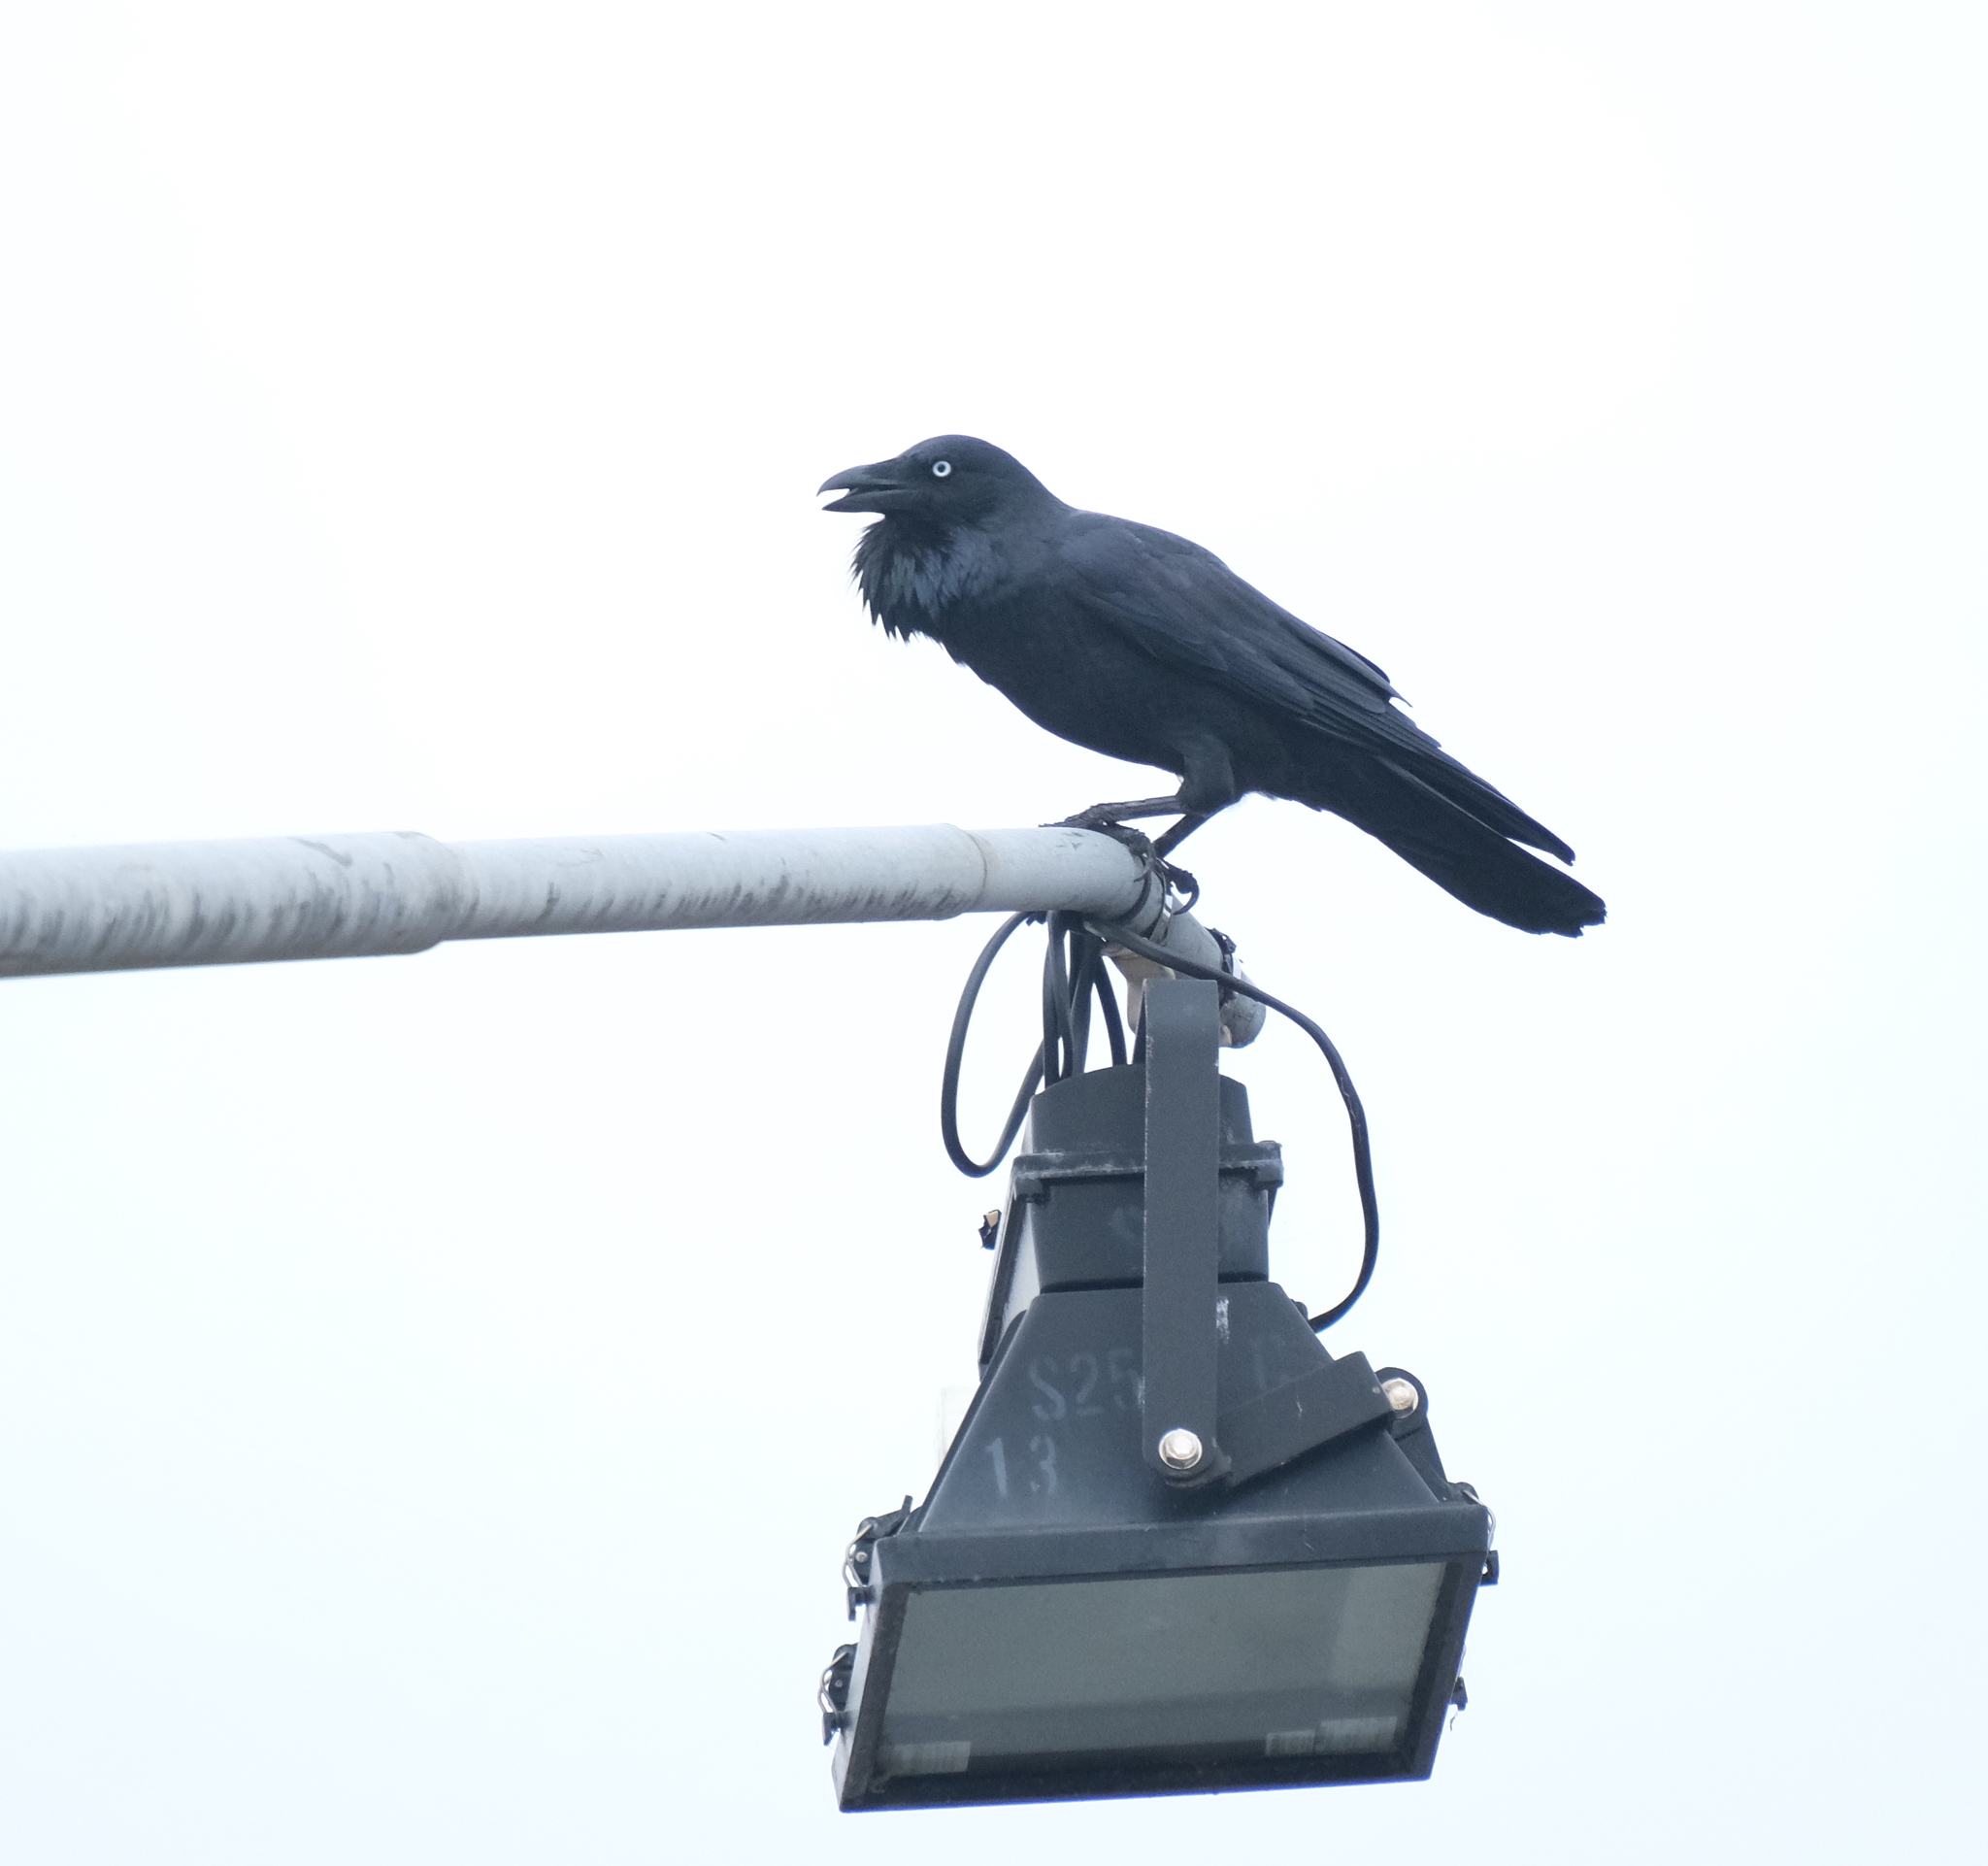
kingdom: Animalia
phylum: Chordata
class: Aves
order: Passeriformes
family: Corvidae
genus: Corvus
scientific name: Corvus coronoides
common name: Australian raven
